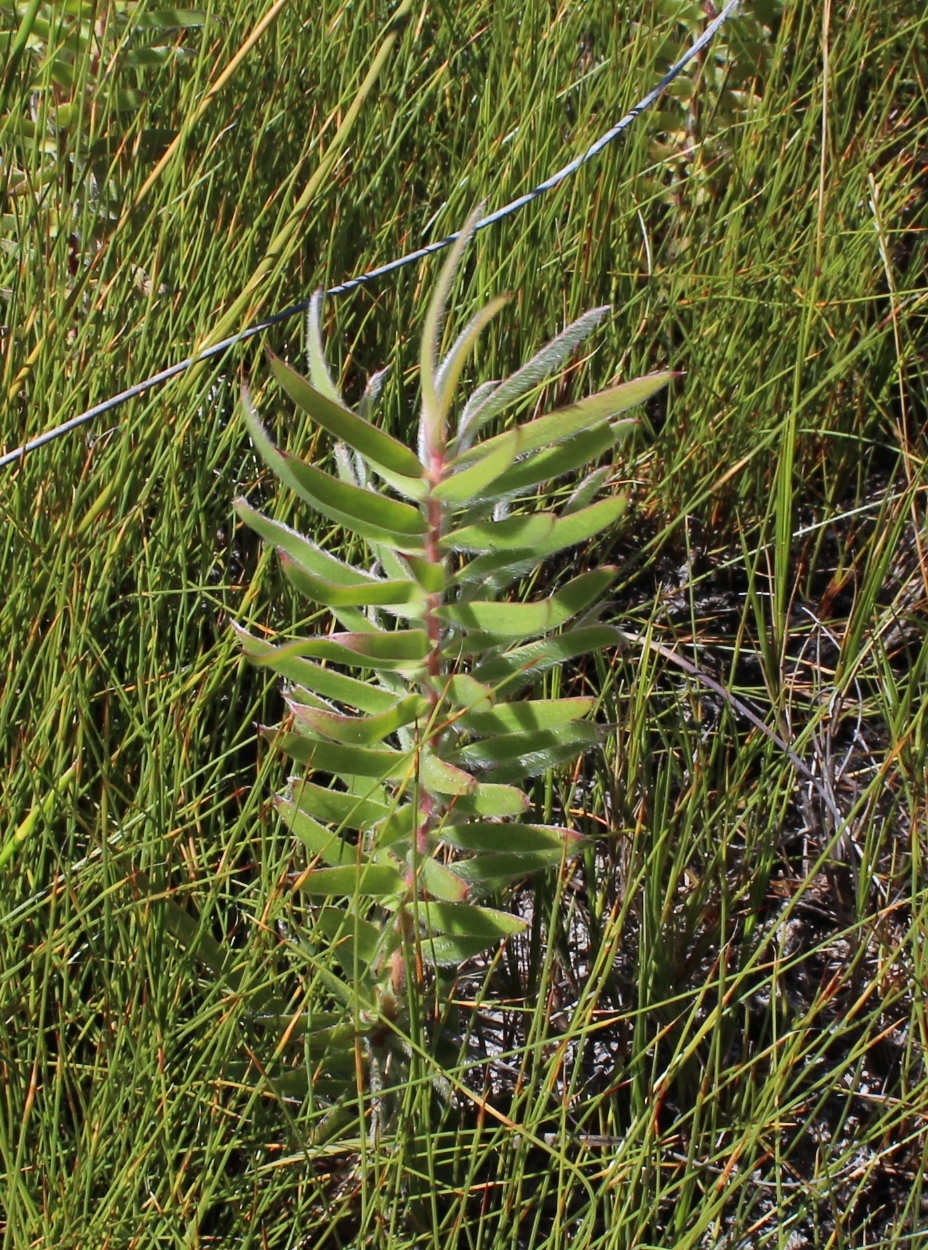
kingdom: Plantae
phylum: Tracheophyta
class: Magnoliopsida
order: Proteales
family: Proteaceae
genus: Leucadendron
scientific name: Leucadendron salicifolium
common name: Common stream conebush
